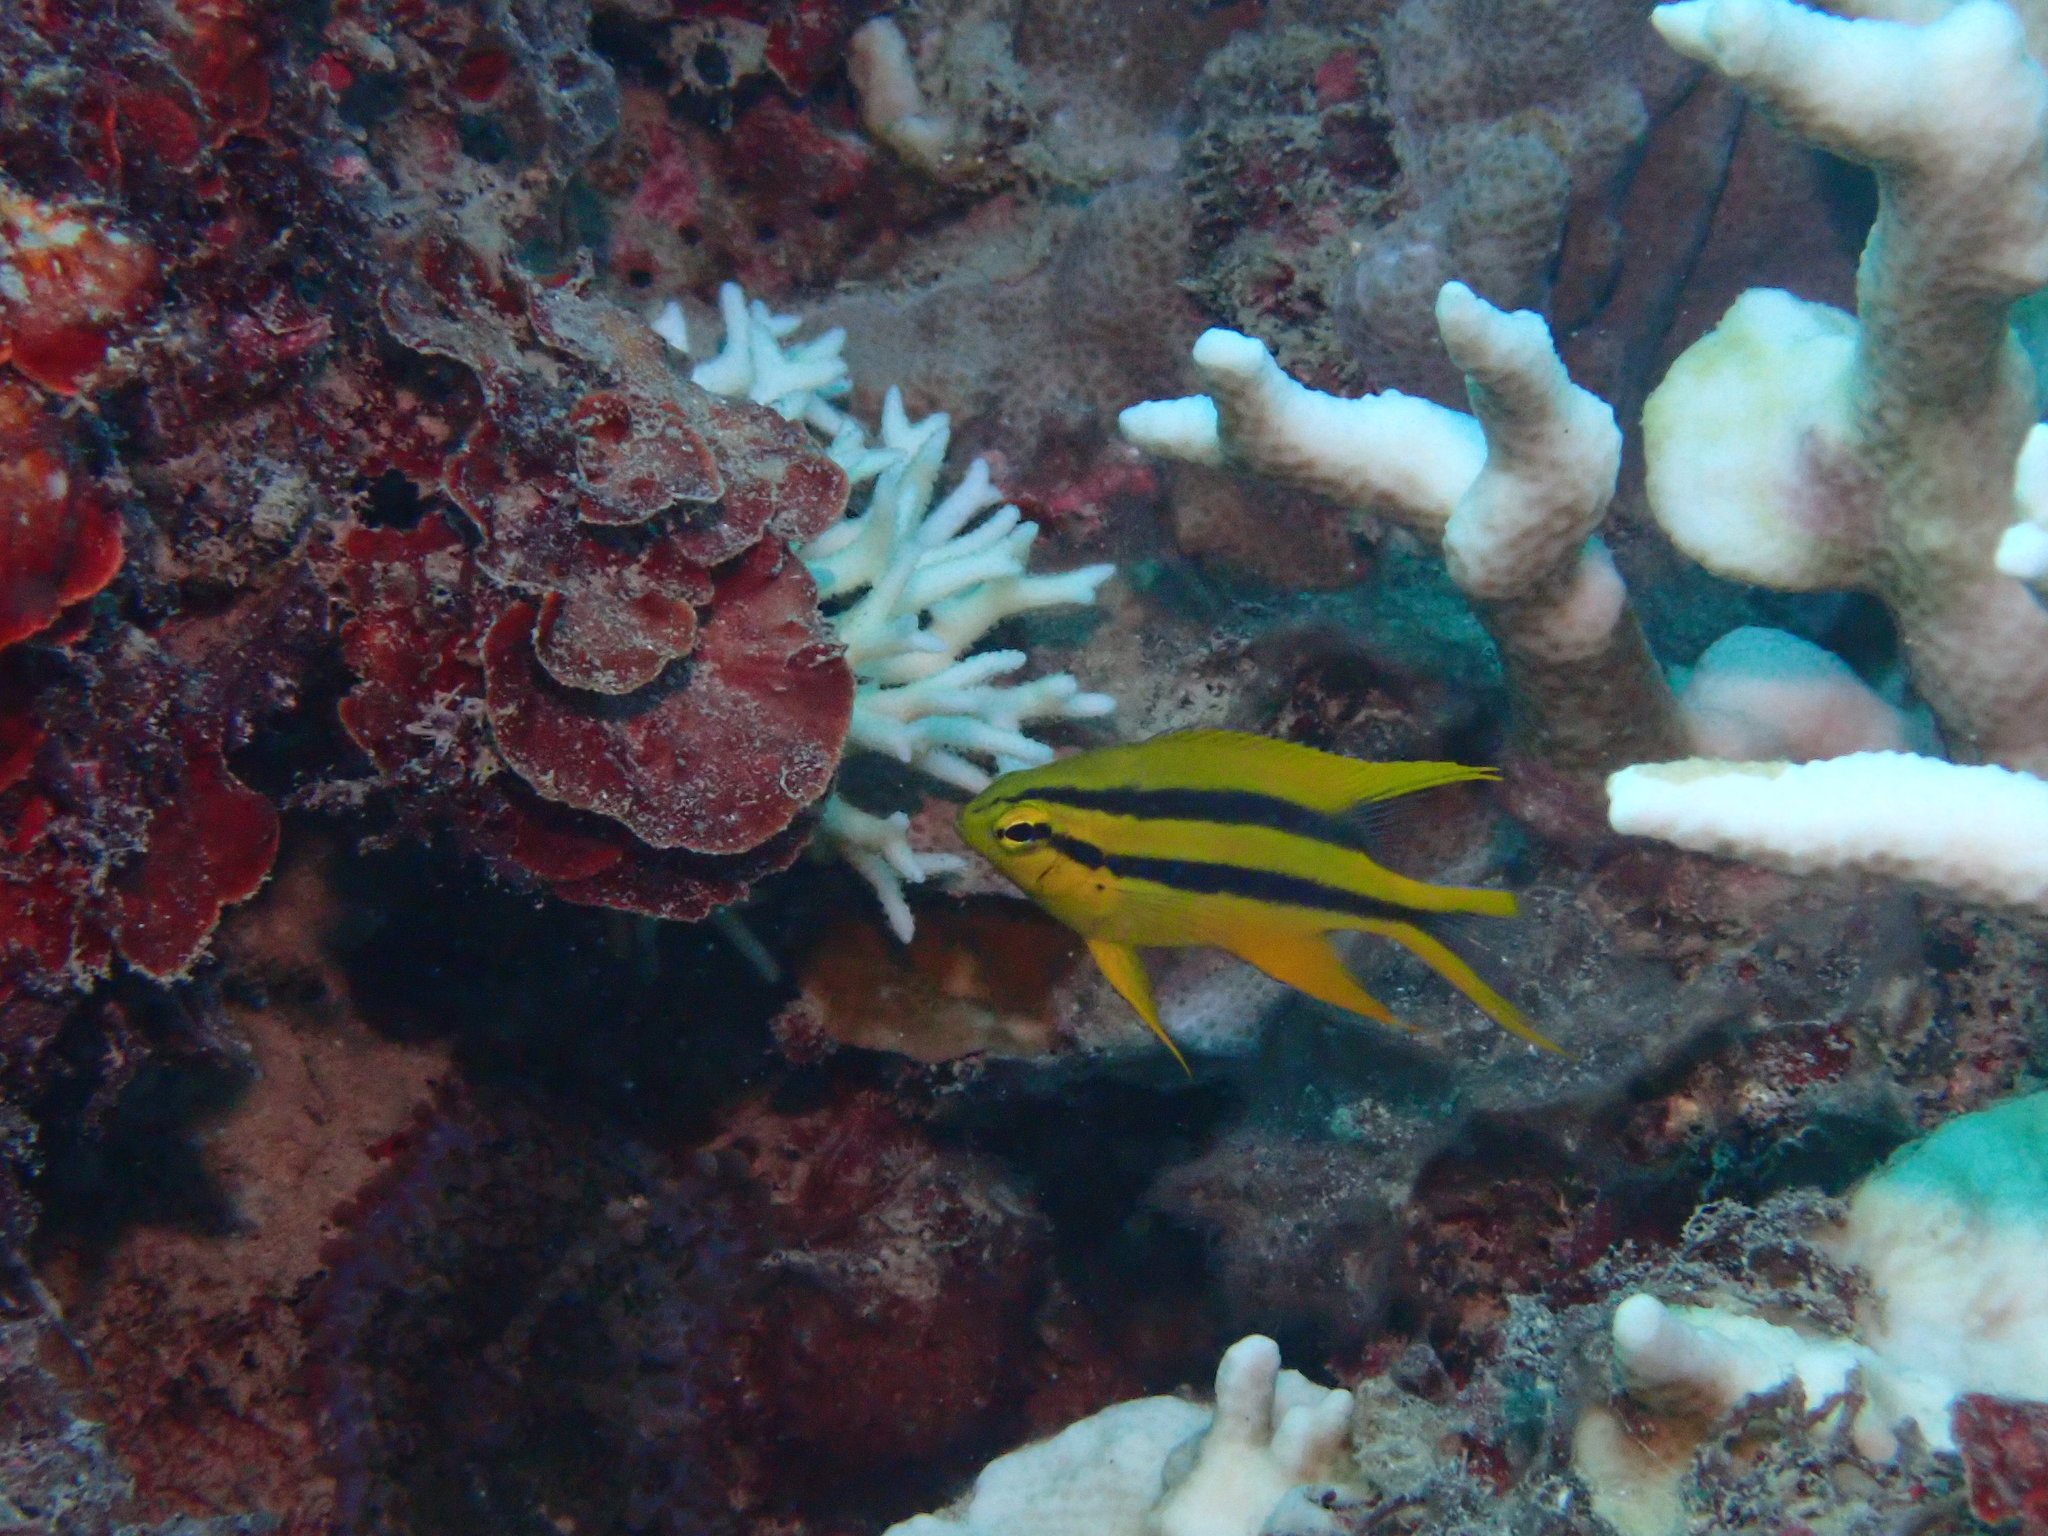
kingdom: Animalia
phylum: Chordata
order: Perciformes
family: Pomacentridae
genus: Neoglyphidodon
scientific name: Neoglyphidodon nigroris
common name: Behn's damsel
